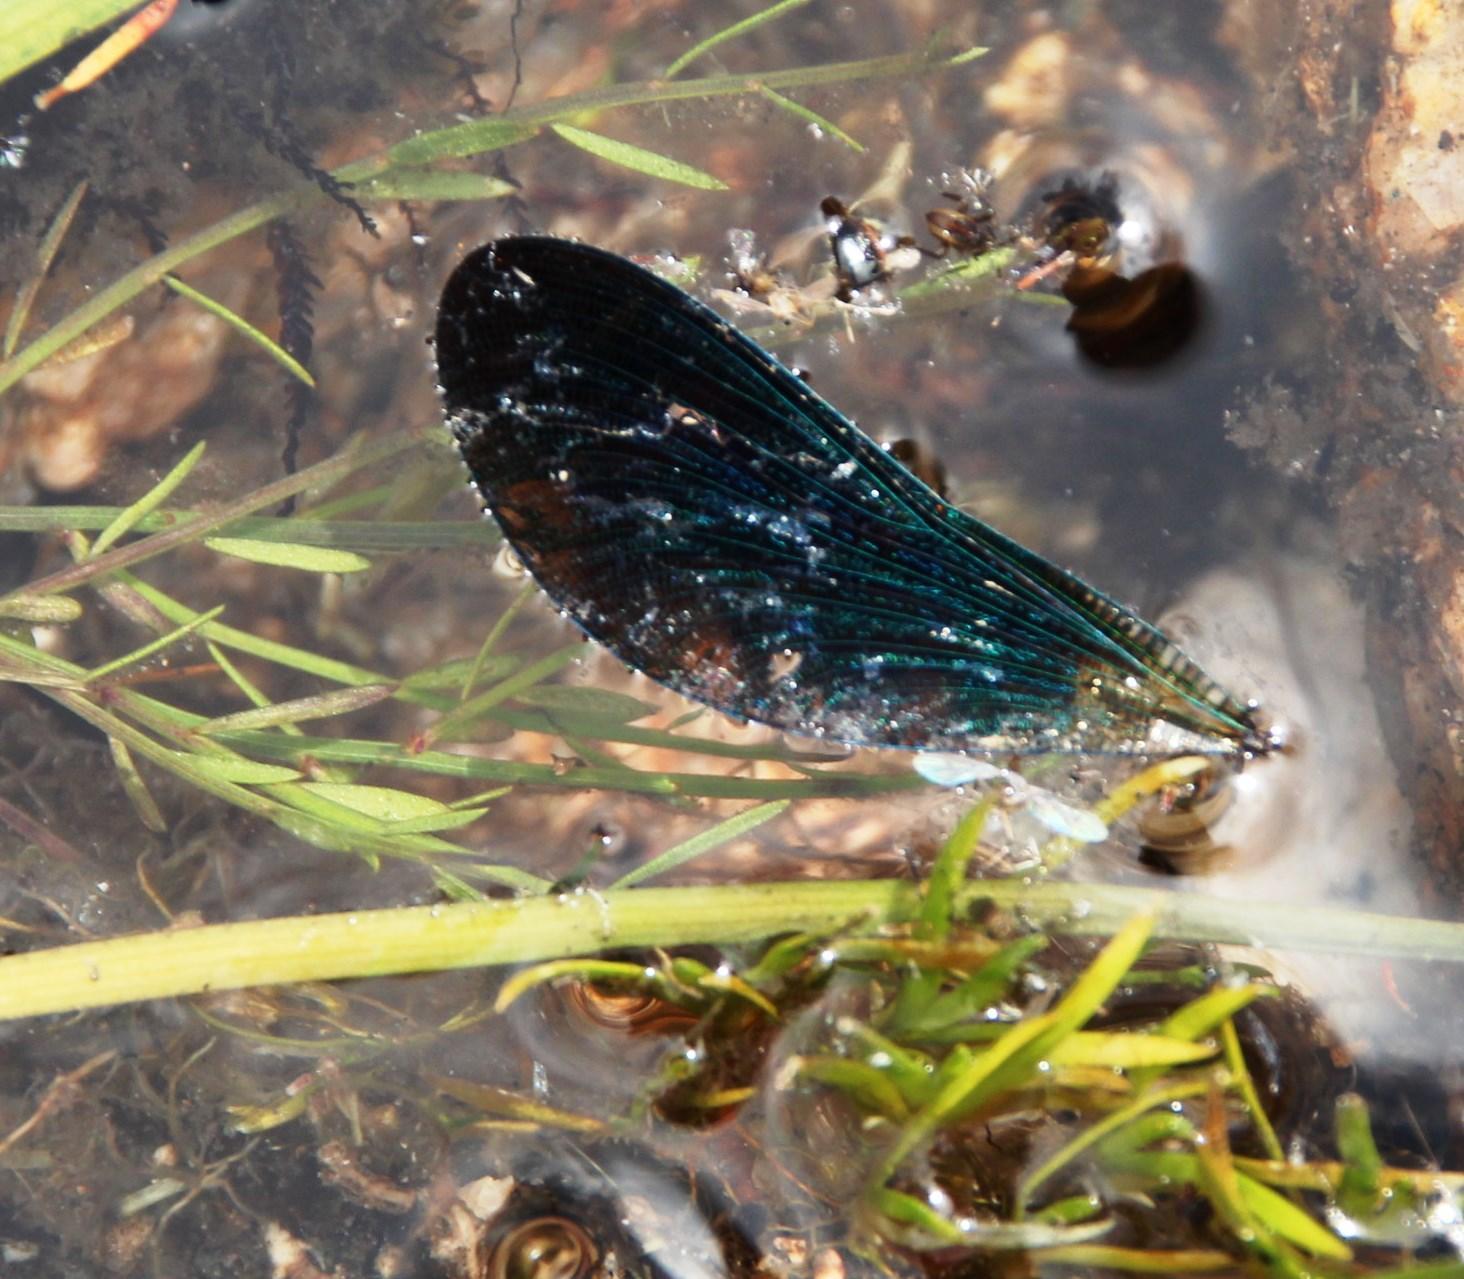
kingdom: Animalia
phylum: Arthropoda
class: Insecta
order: Odonata
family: Calopterygidae
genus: Calopteryx
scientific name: Calopteryx virgo
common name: Beautiful demoiselle
